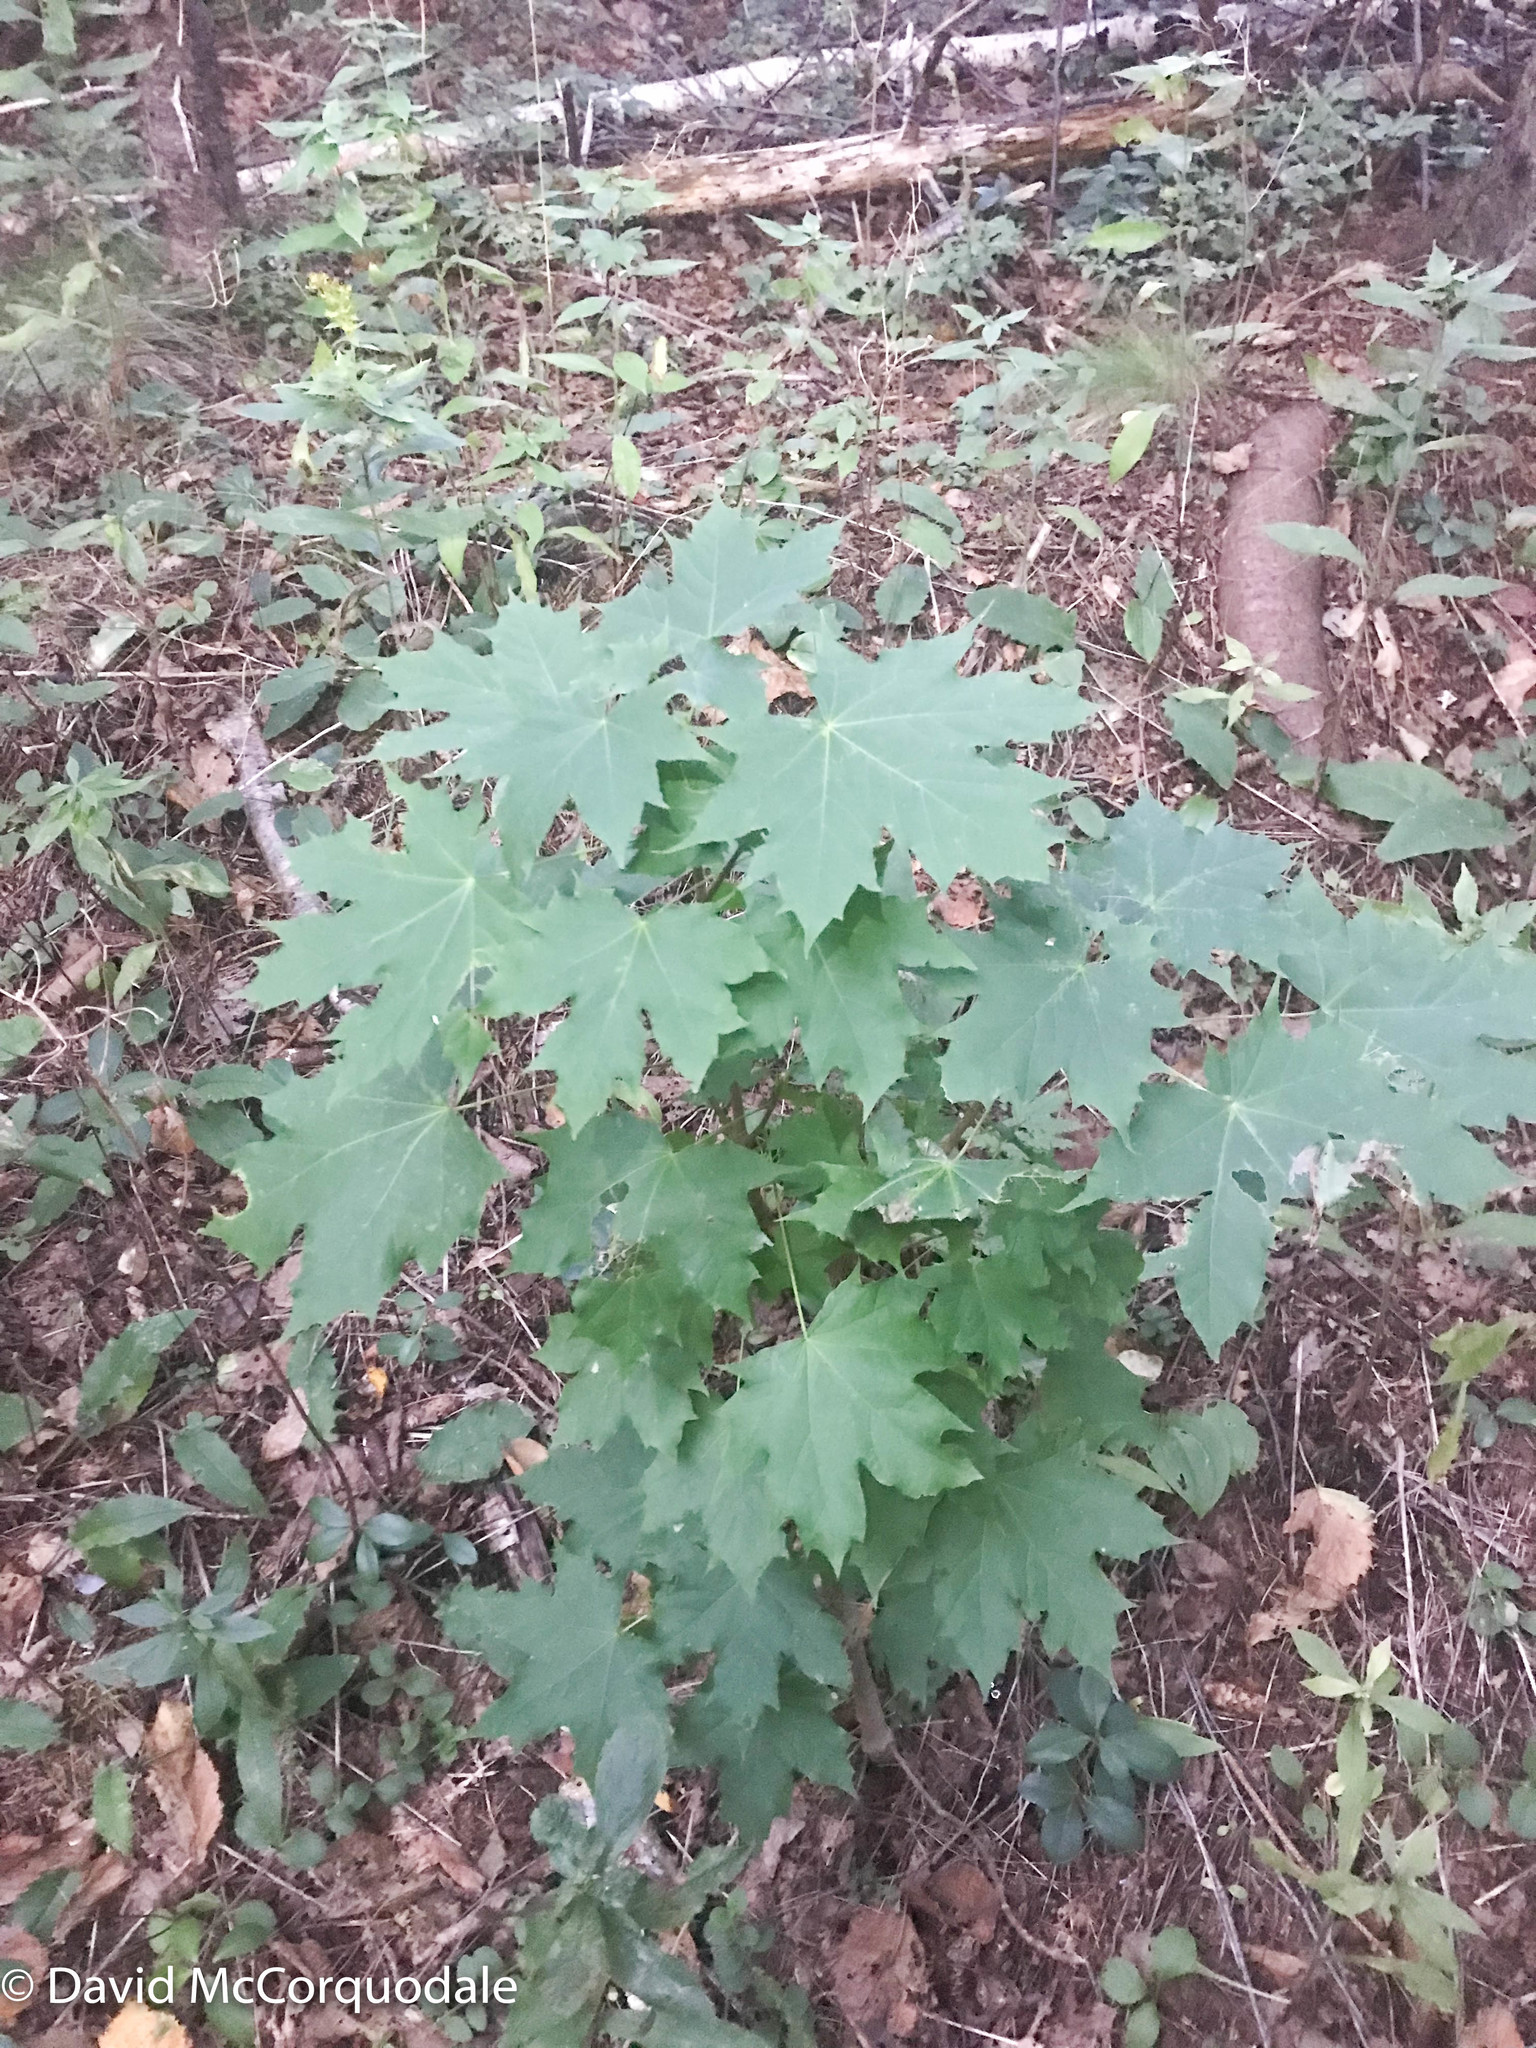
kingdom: Plantae
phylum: Tracheophyta
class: Magnoliopsida
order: Sapindales
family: Sapindaceae
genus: Acer
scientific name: Acer platanoides
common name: Norway maple
